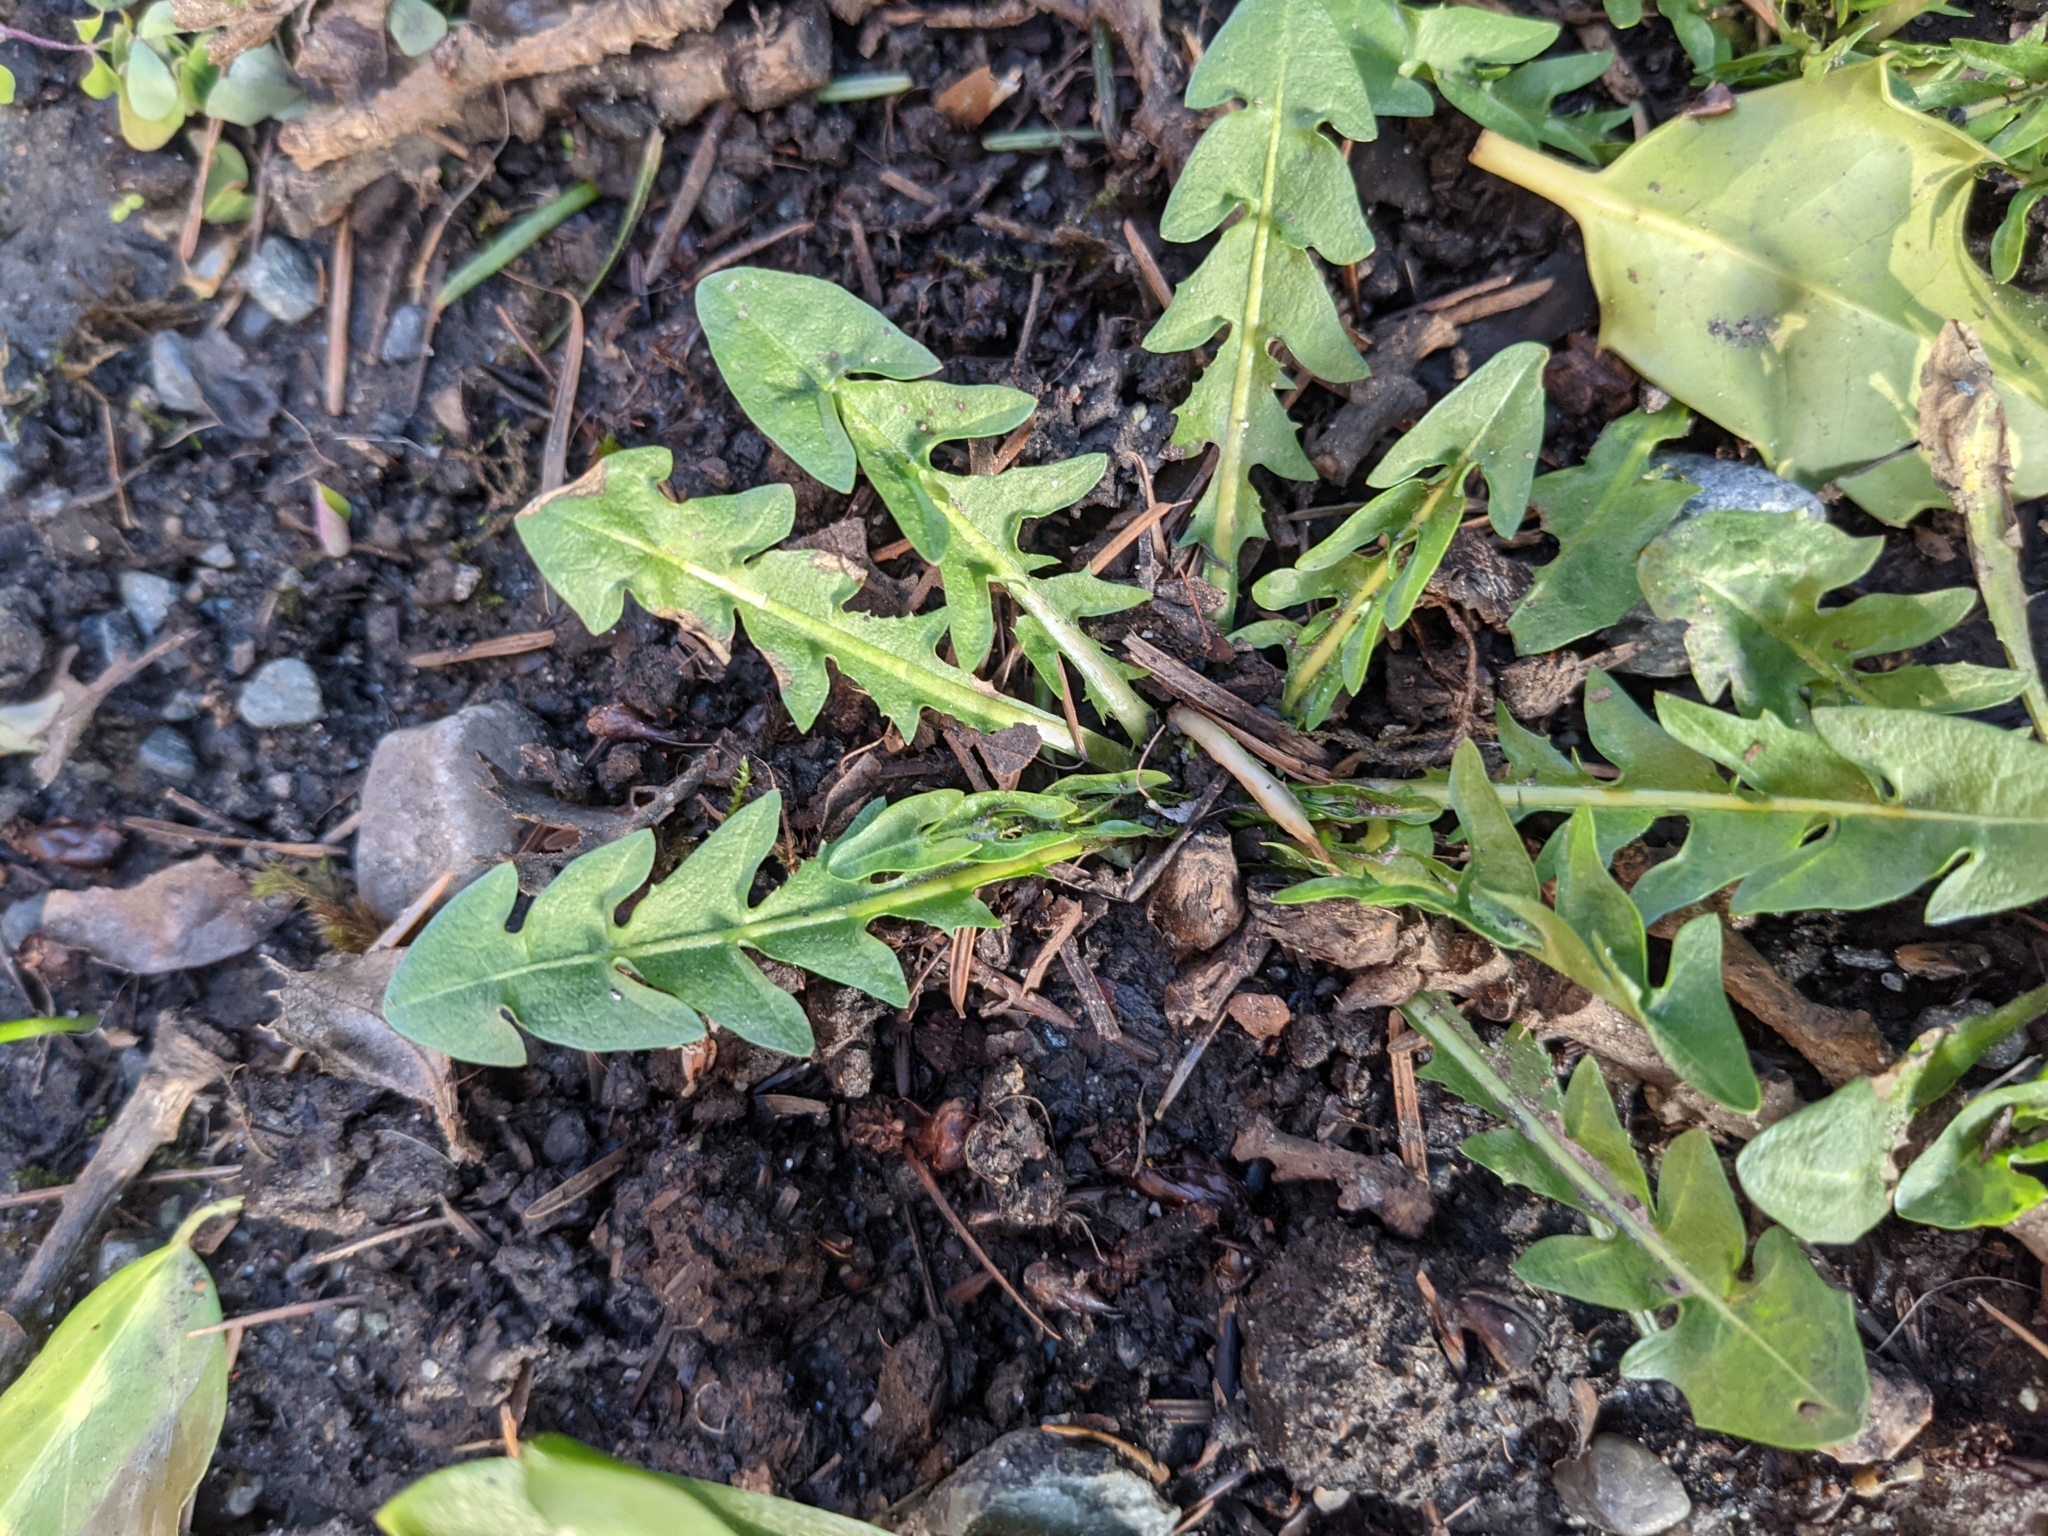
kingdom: Plantae
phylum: Tracheophyta
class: Magnoliopsida
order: Asterales
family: Asteraceae
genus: Taraxacum
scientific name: Taraxacum officinale
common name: Common dandelion
